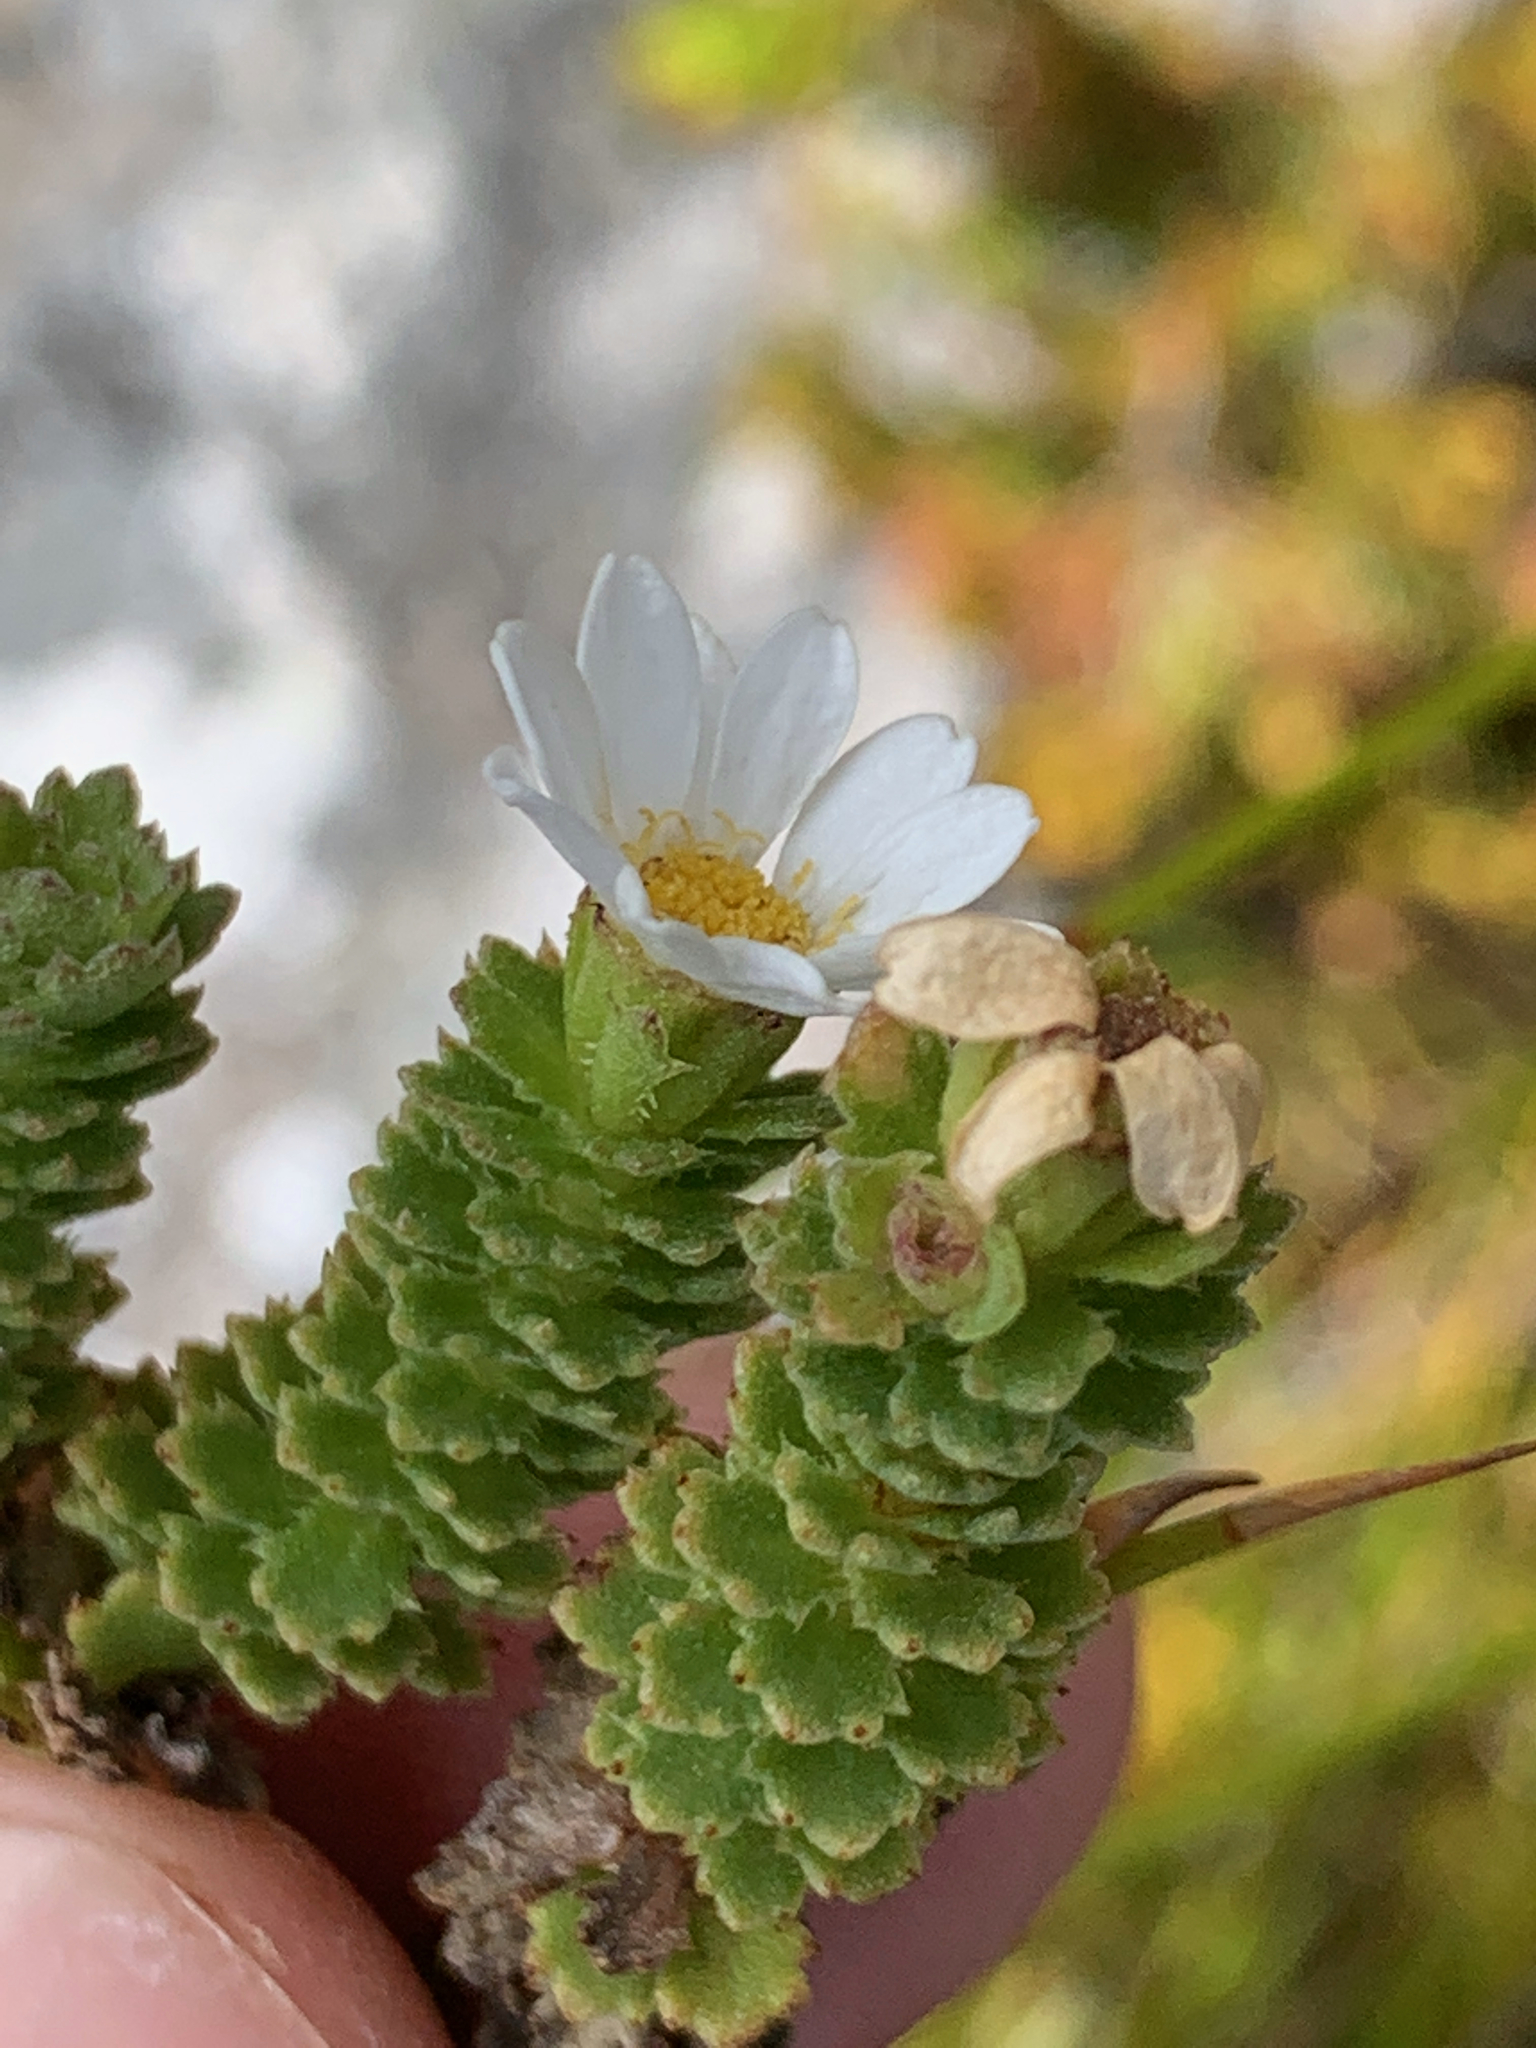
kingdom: Plantae
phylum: Tracheophyta
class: Magnoliopsida
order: Asterales
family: Asteraceae
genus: Osmitopsis
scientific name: Osmitopsis asteriscoides
